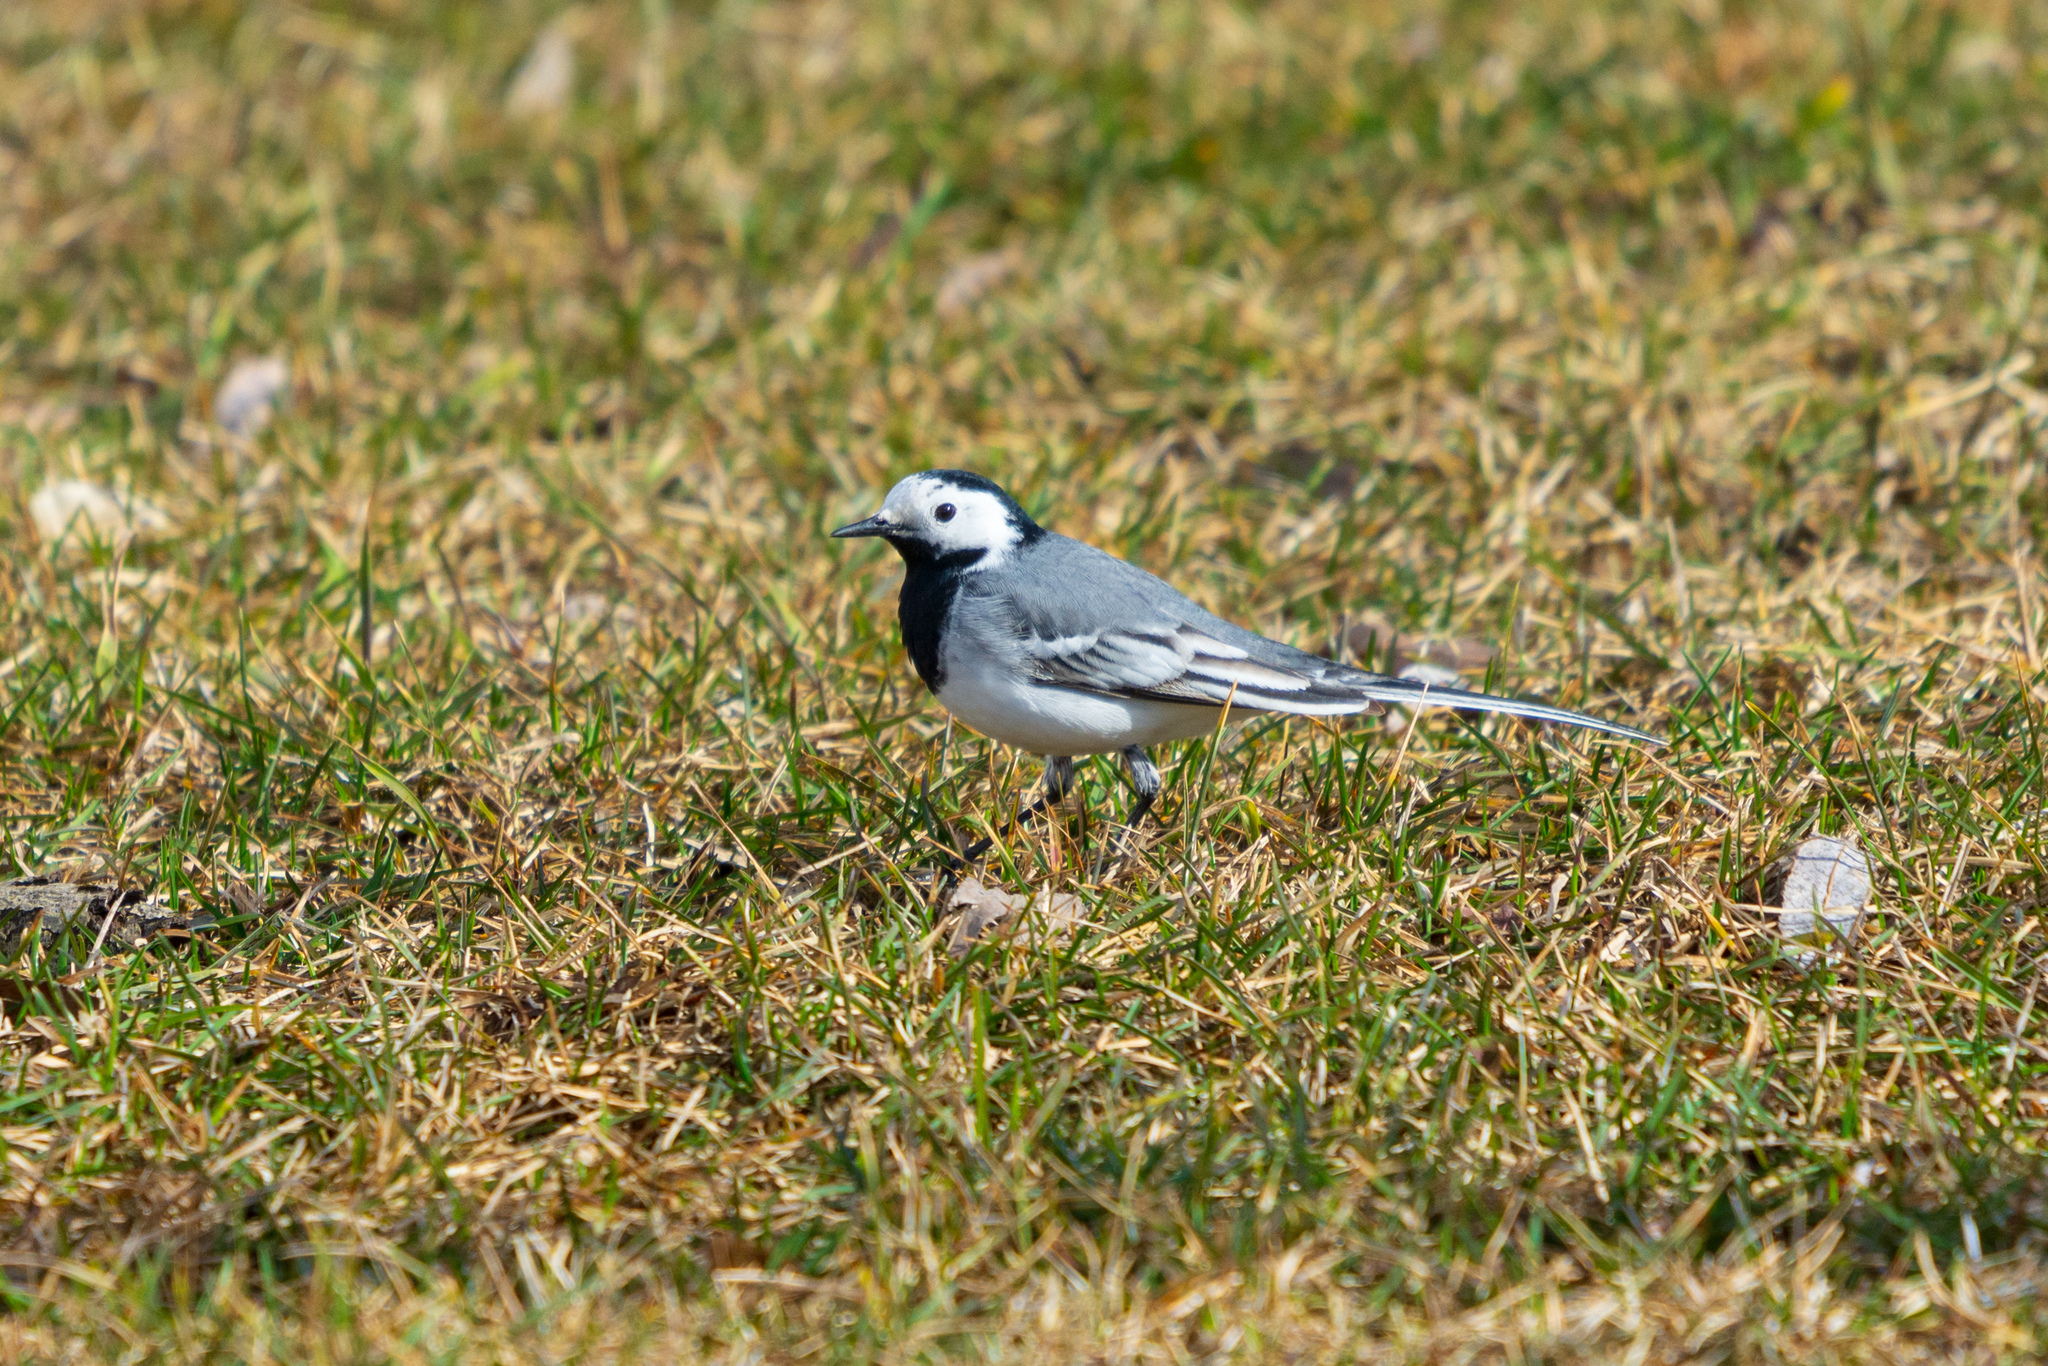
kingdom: Animalia
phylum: Chordata
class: Aves
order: Passeriformes
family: Motacillidae
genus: Motacilla
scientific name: Motacilla alba
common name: White wagtail
